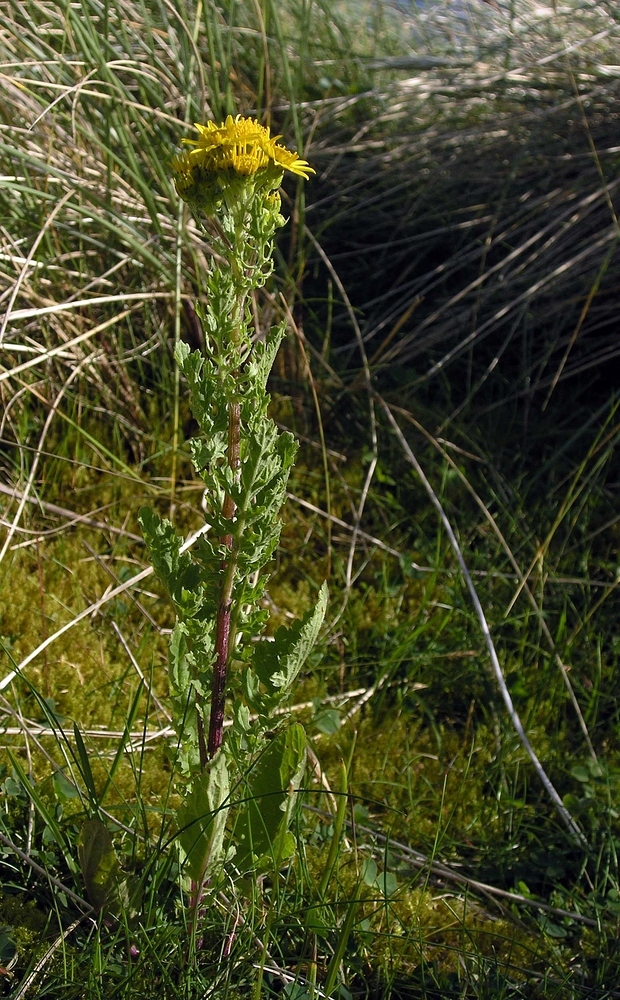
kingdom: Plantae
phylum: Tracheophyta
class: Magnoliopsida
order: Asterales
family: Asteraceae
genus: Jacobaea
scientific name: Jacobaea vulgaris
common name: Stinking willie
